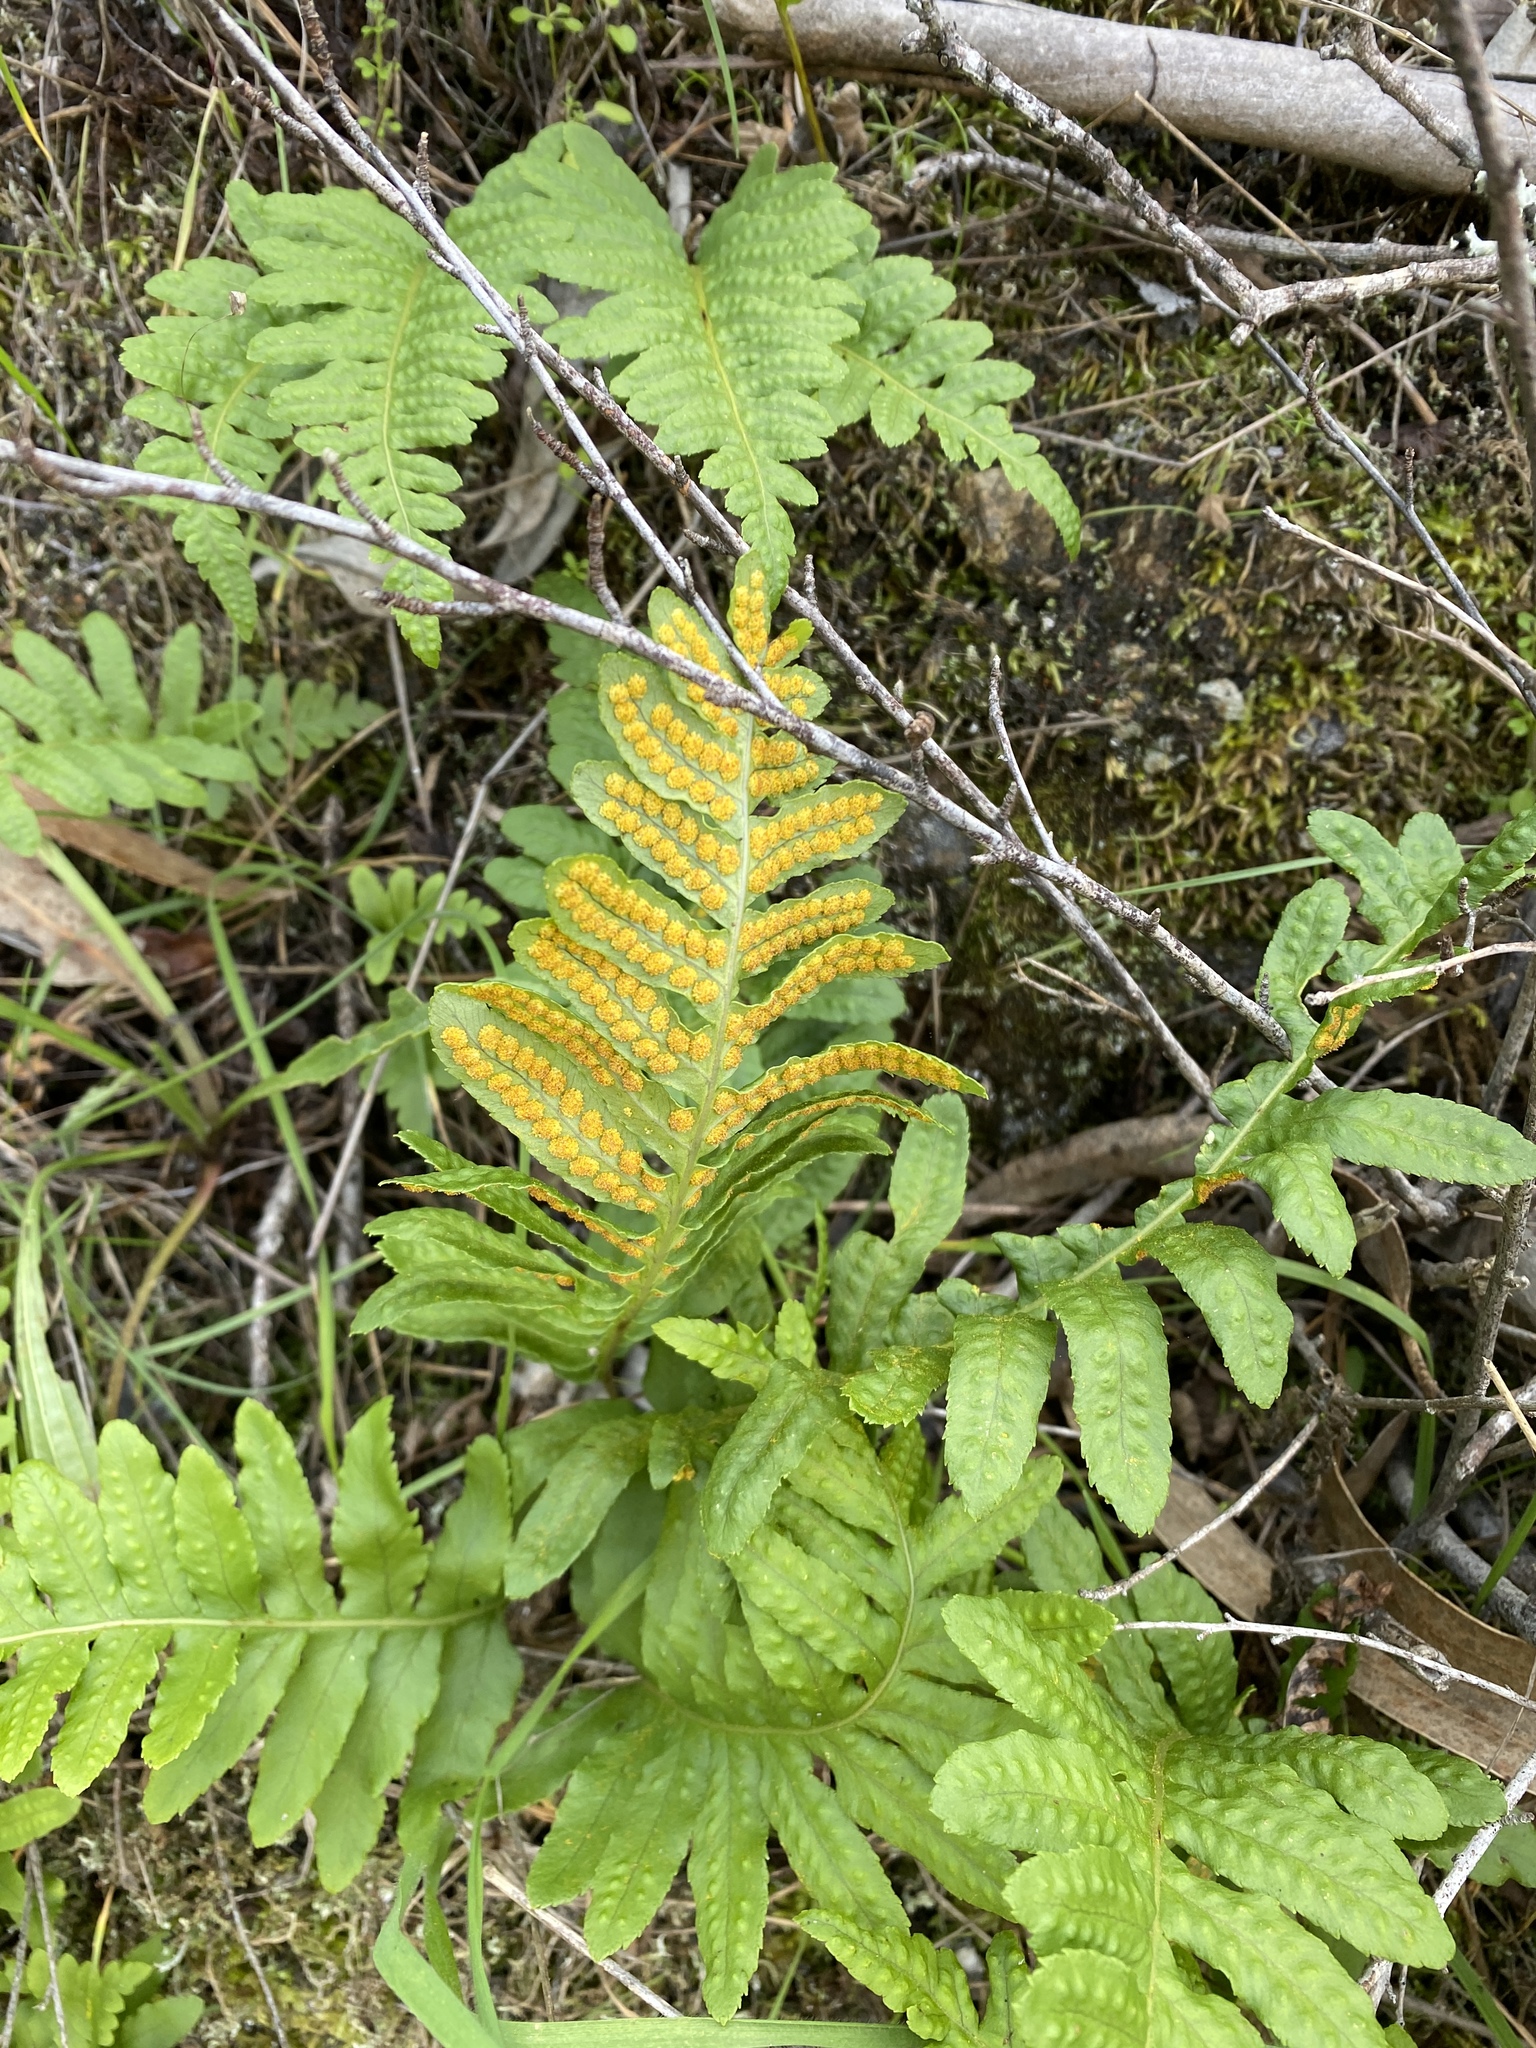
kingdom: Plantae
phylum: Tracheophyta
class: Polypodiopsida
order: Polypodiales
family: Polypodiaceae
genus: Polypodium
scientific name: Polypodium californicum
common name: California polypody
